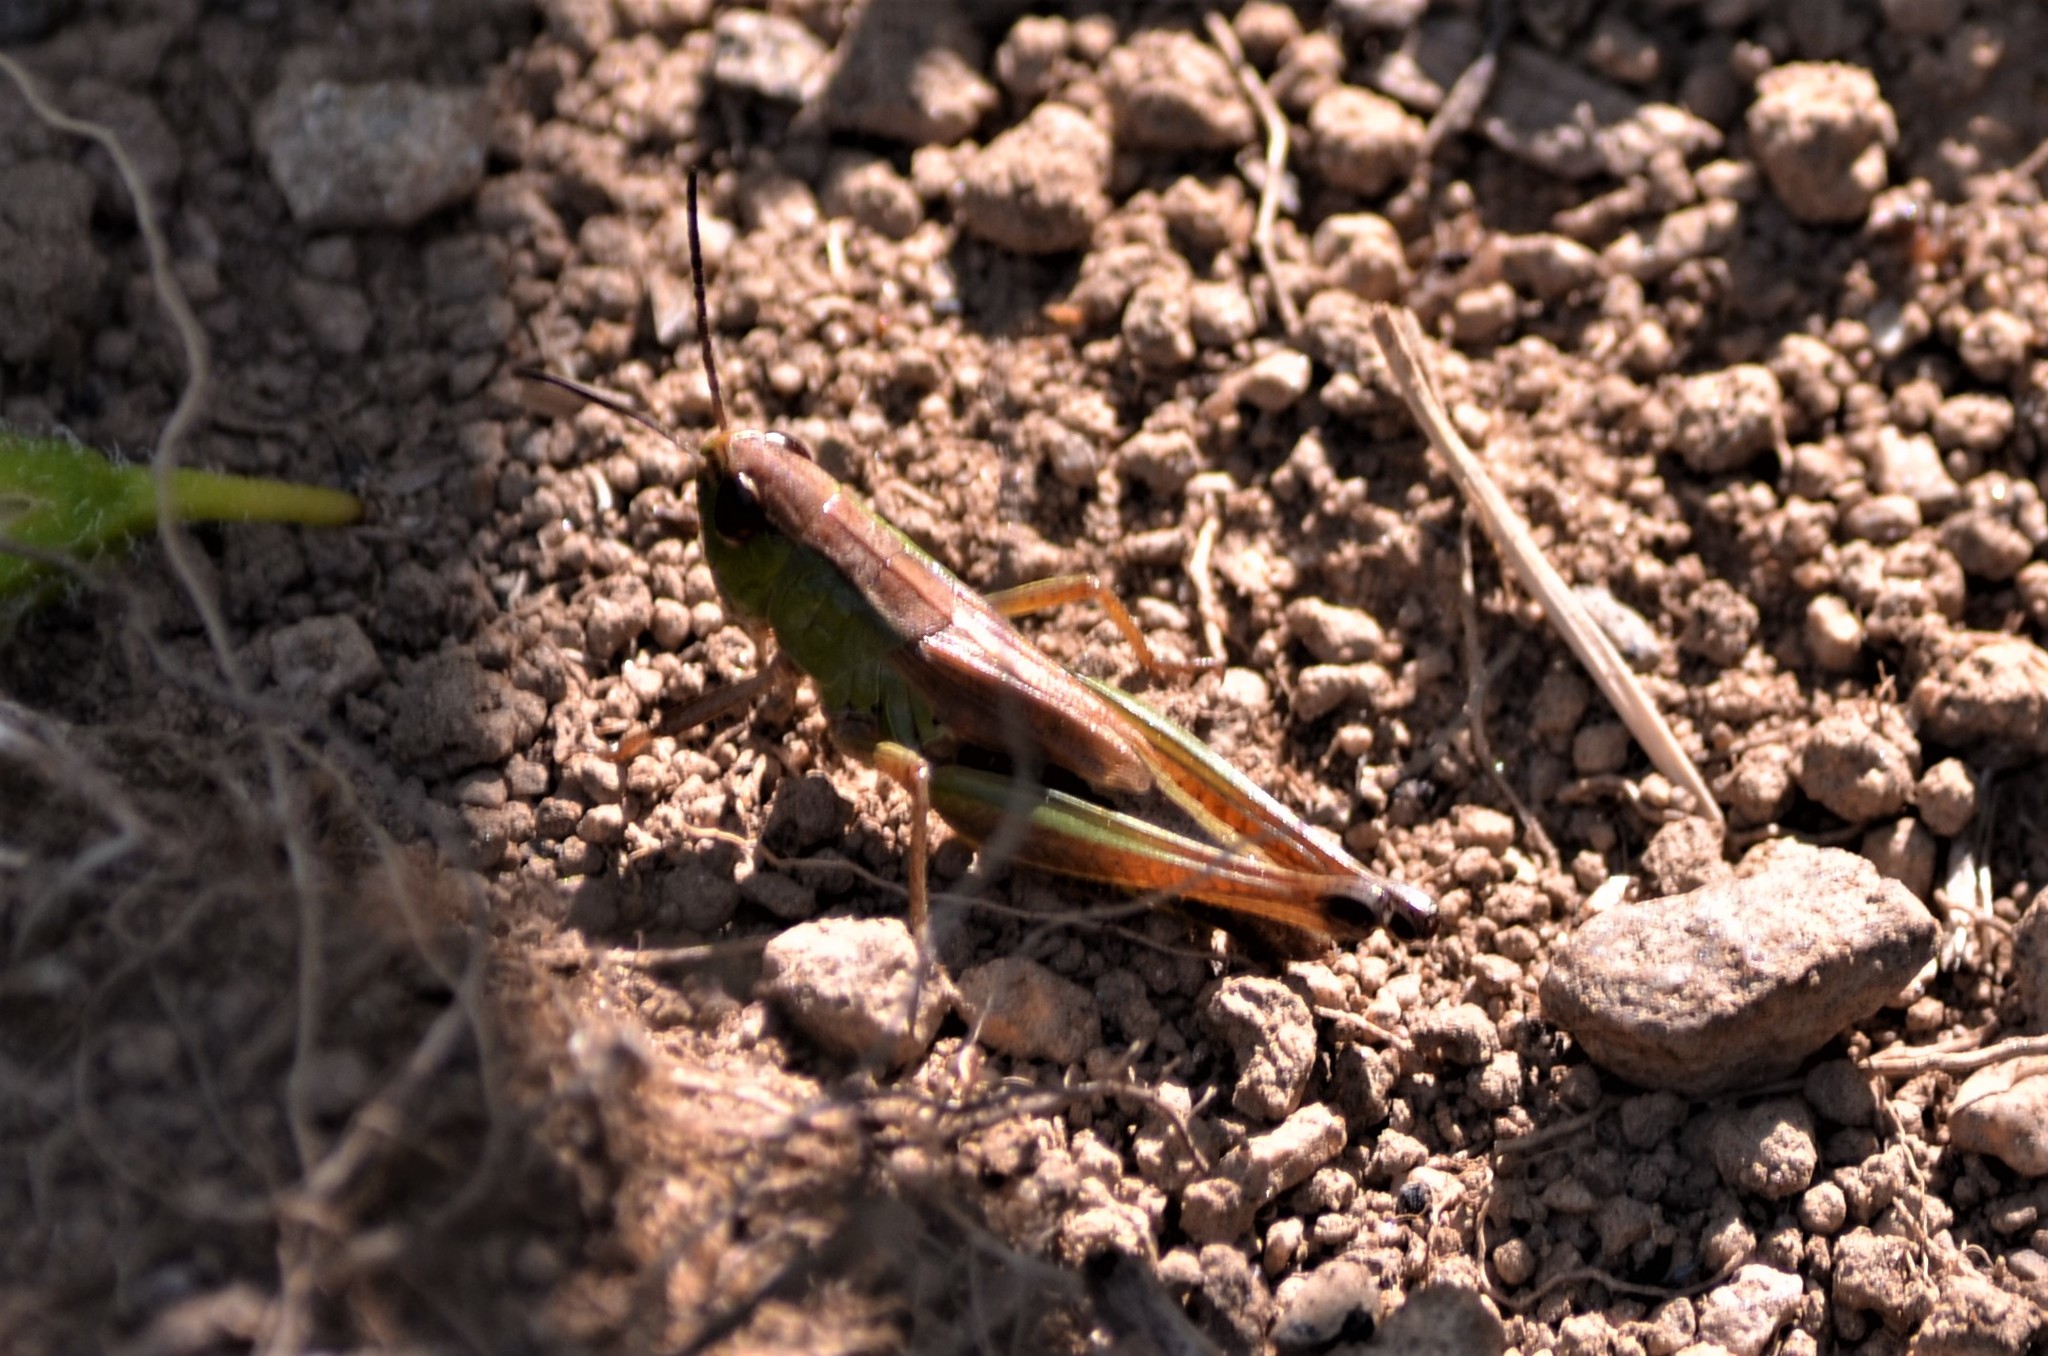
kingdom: Animalia
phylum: Arthropoda
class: Insecta
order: Orthoptera
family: Acrididae
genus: Pseudochorthippus
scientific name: Pseudochorthippus parallelus
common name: Meadow grasshopper
